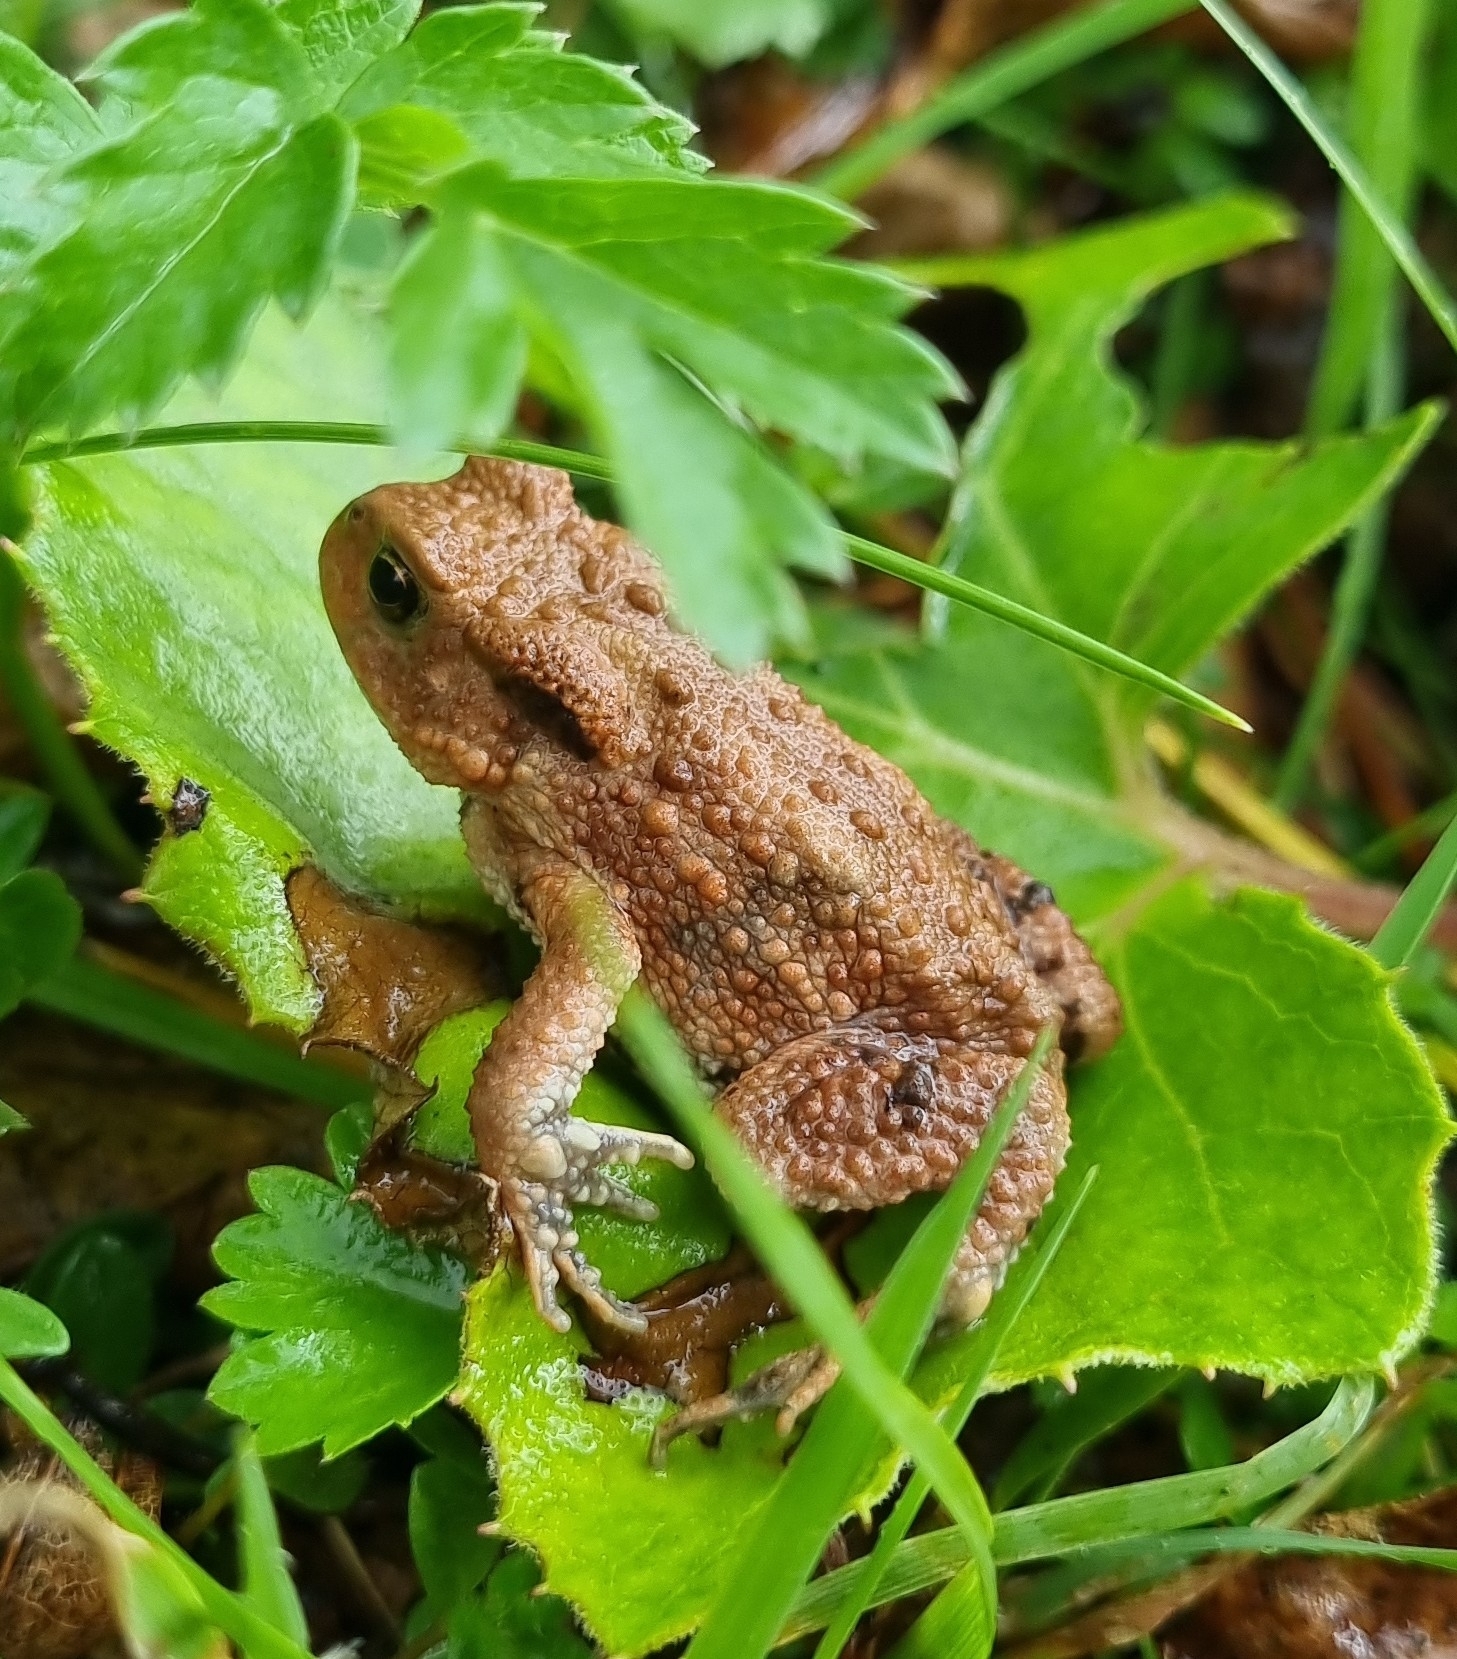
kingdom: Animalia
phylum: Chordata
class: Amphibia
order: Anura
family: Bufonidae
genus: Bufo
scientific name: Bufo bufo
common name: Common toad
